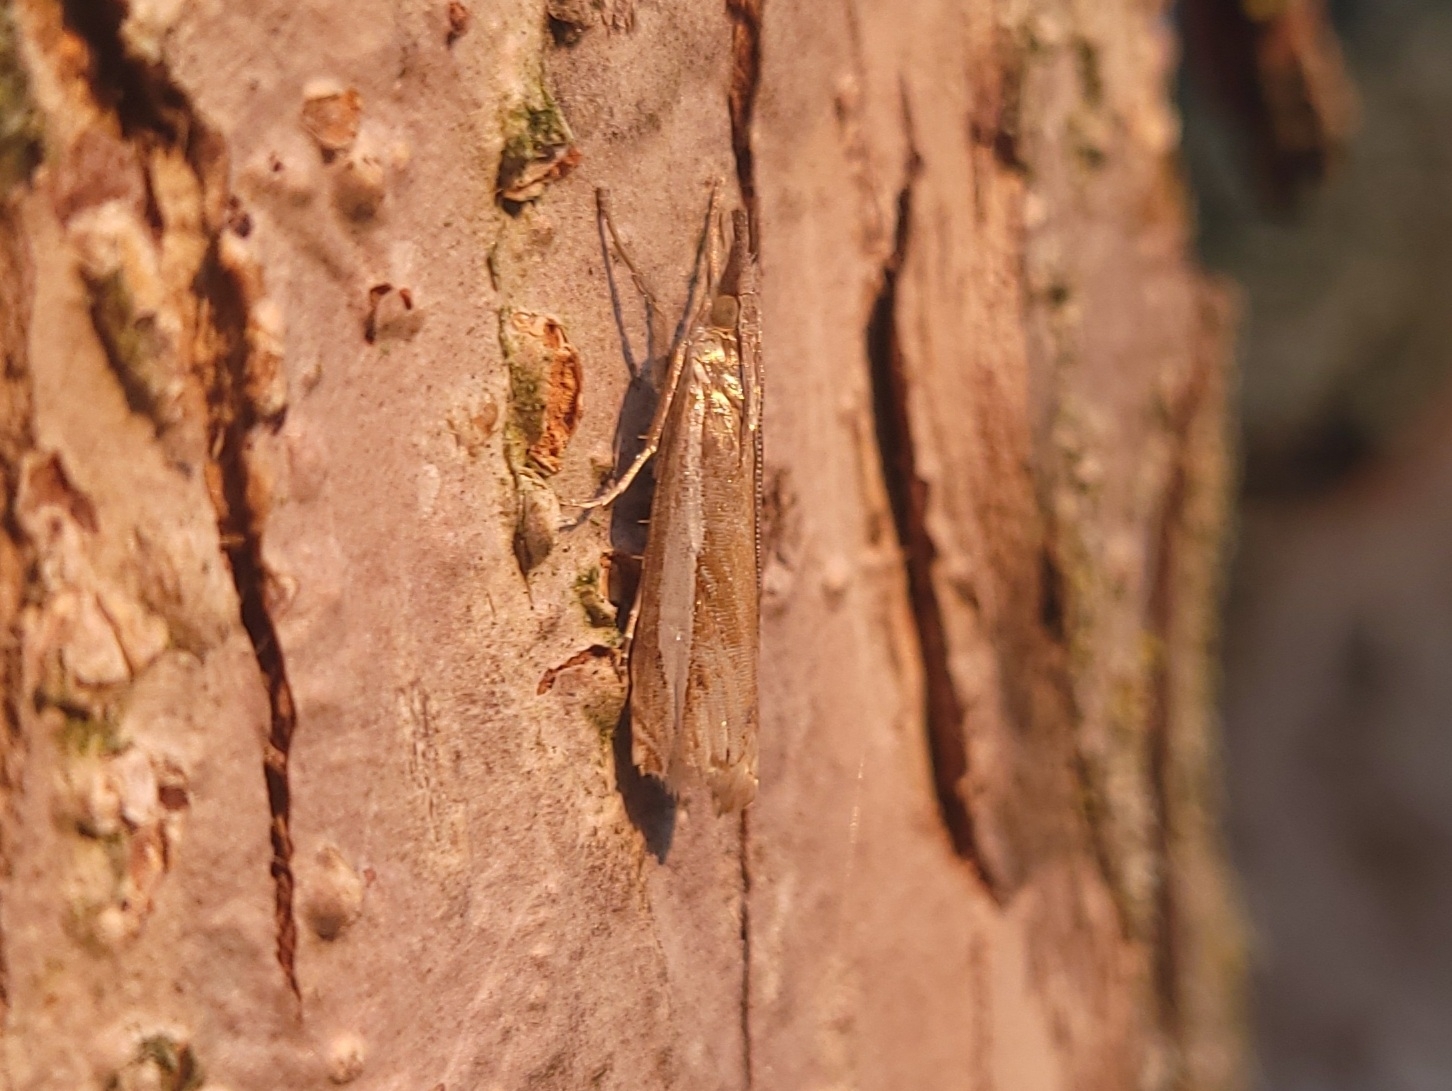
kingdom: Animalia
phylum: Arthropoda
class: Insecta
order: Lepidoptera
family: Crambidae
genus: Crambus
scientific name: Crambus praefectellus
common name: Common grass-veneer
